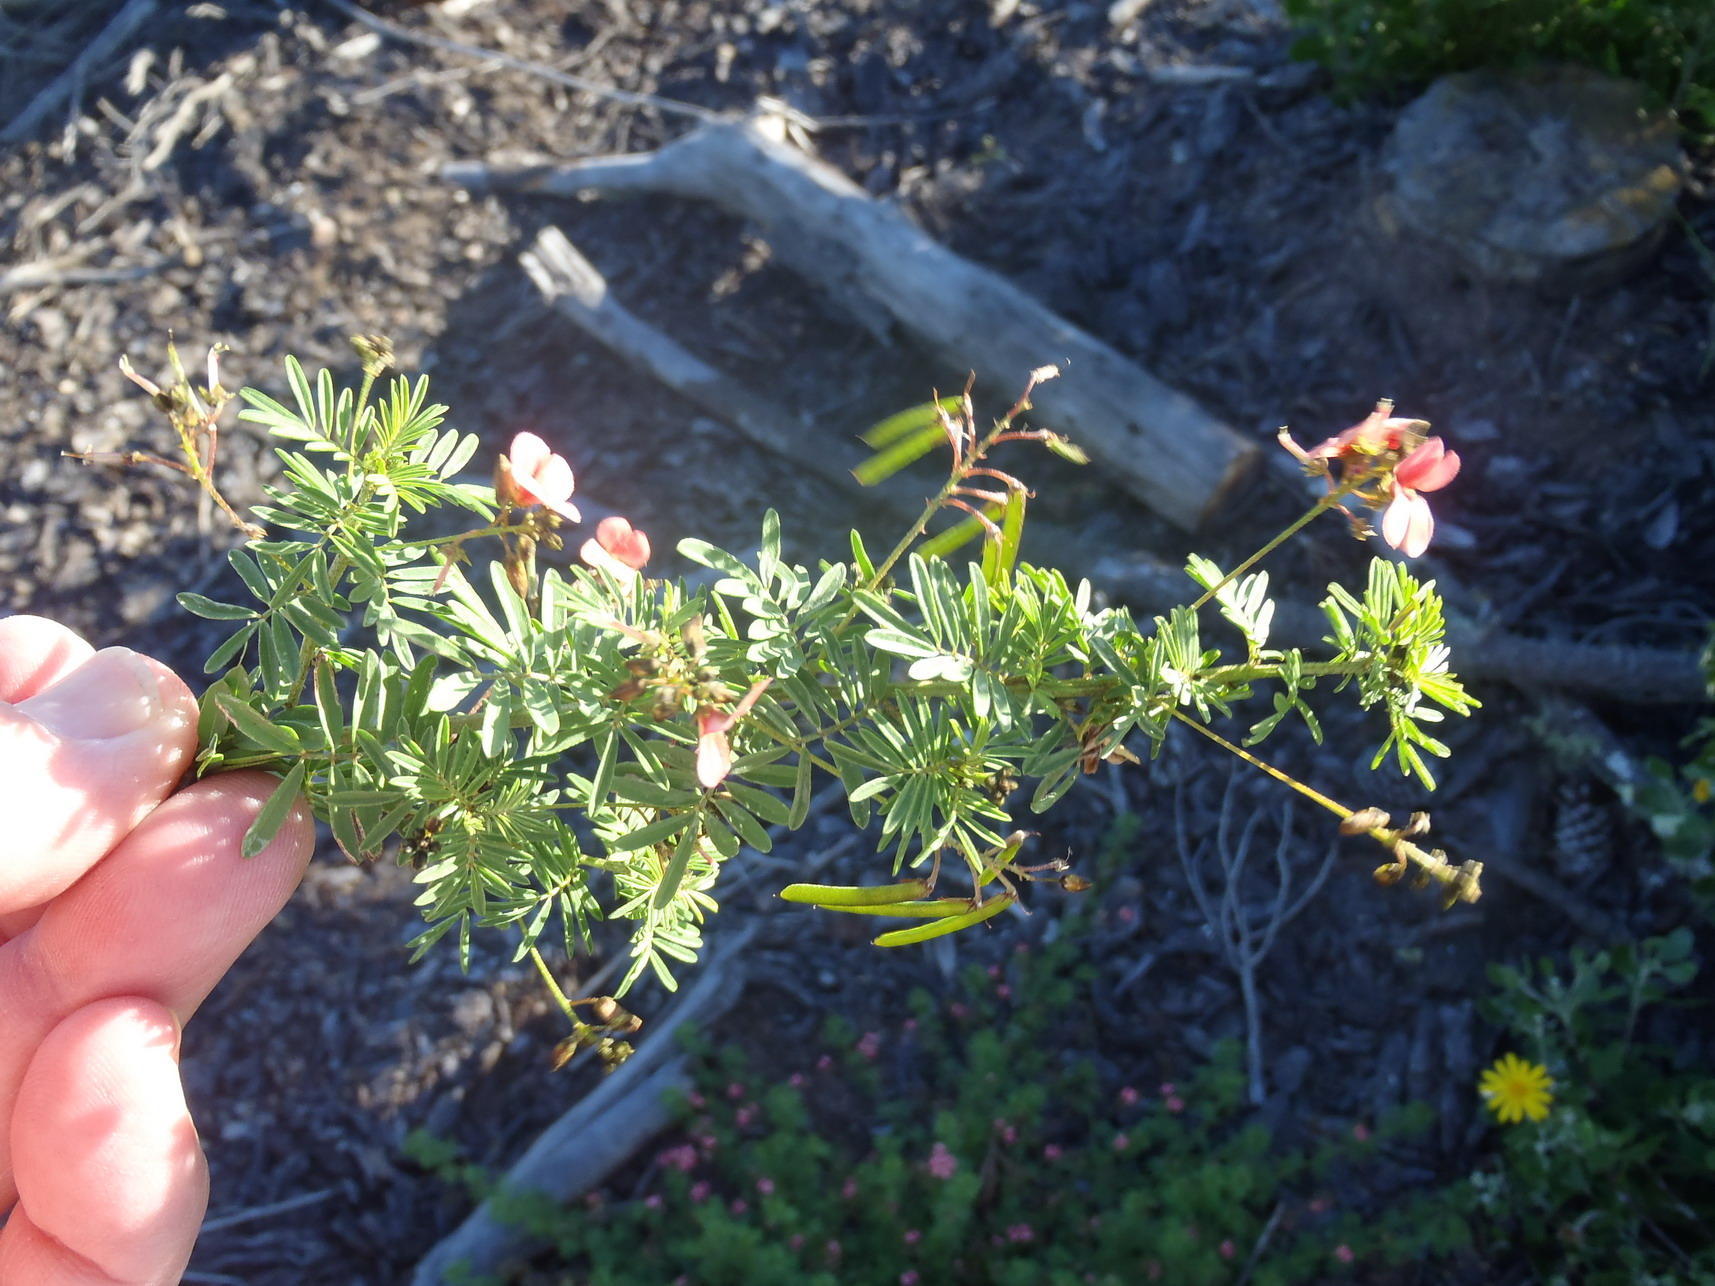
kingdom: Plantae
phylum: Tracheophyta
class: Magnoliopsida
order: Fabales
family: Fabaceae
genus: Indigofera
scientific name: Indigofera verrucosa
